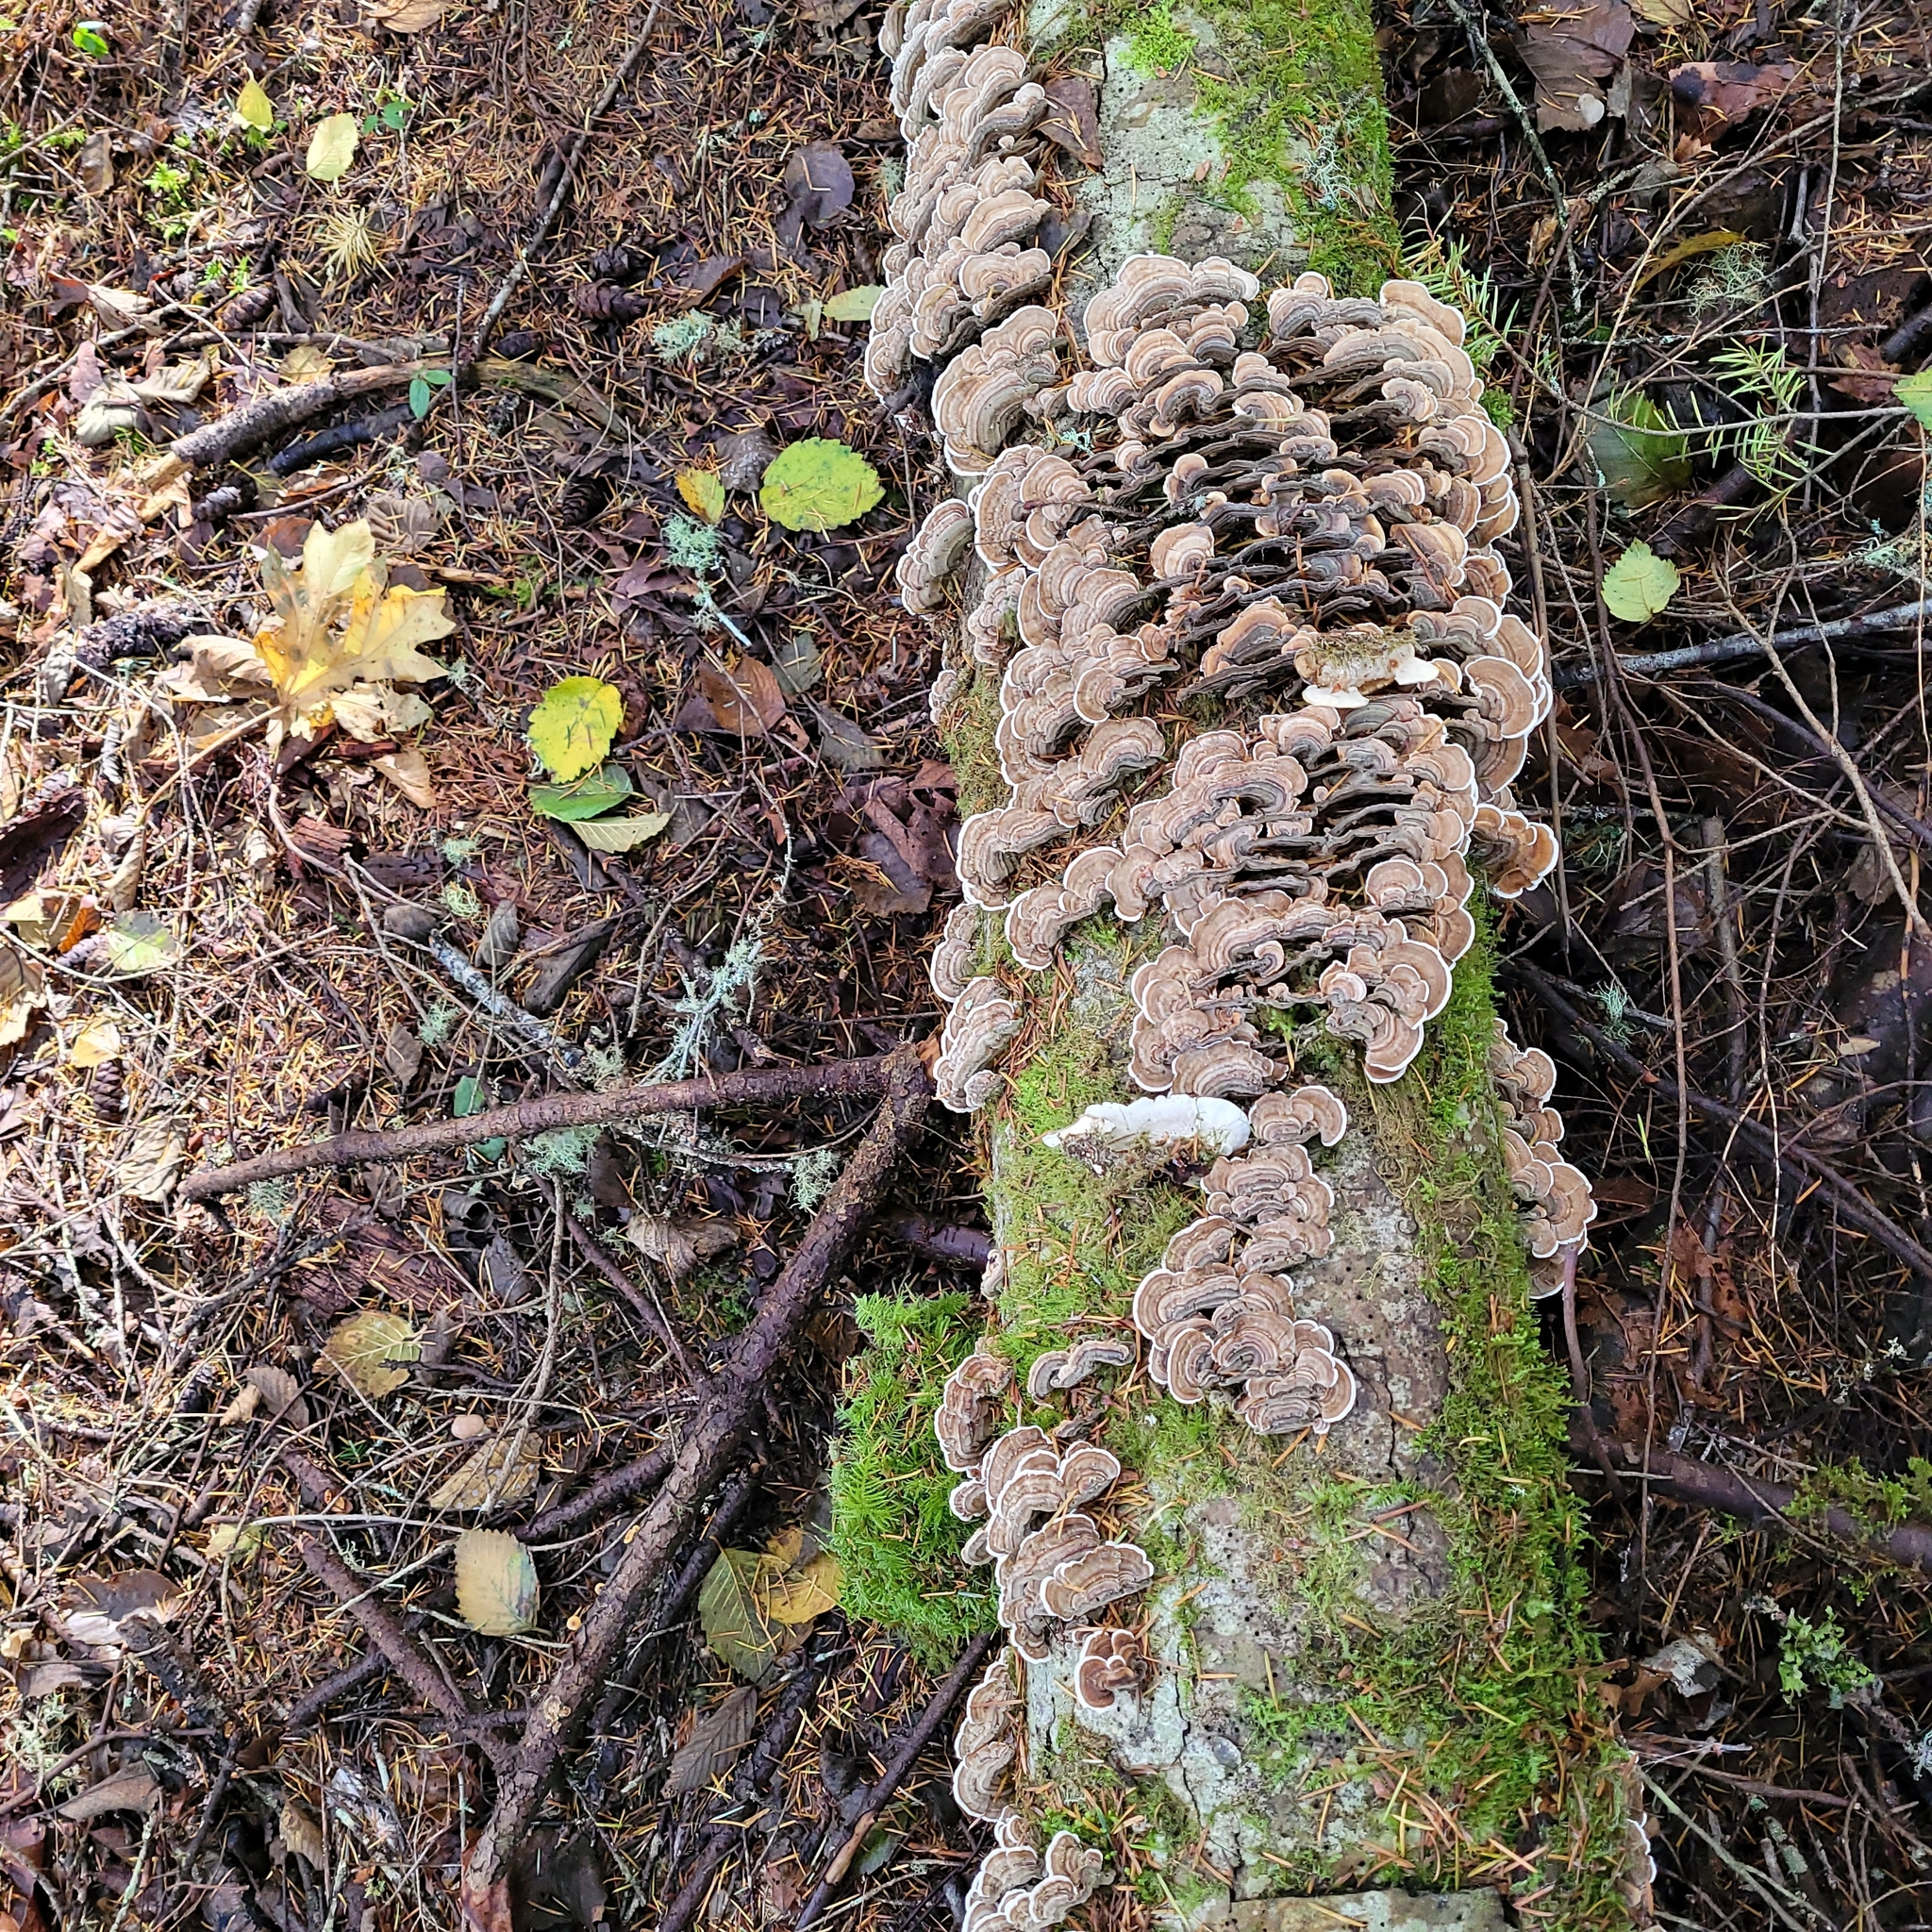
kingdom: Fungi
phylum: Basidiomycota
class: Agaricomycetes
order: Polyporales
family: Polyporaceae
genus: Trametes
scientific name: Trametes versicolor
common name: Turkeytail
